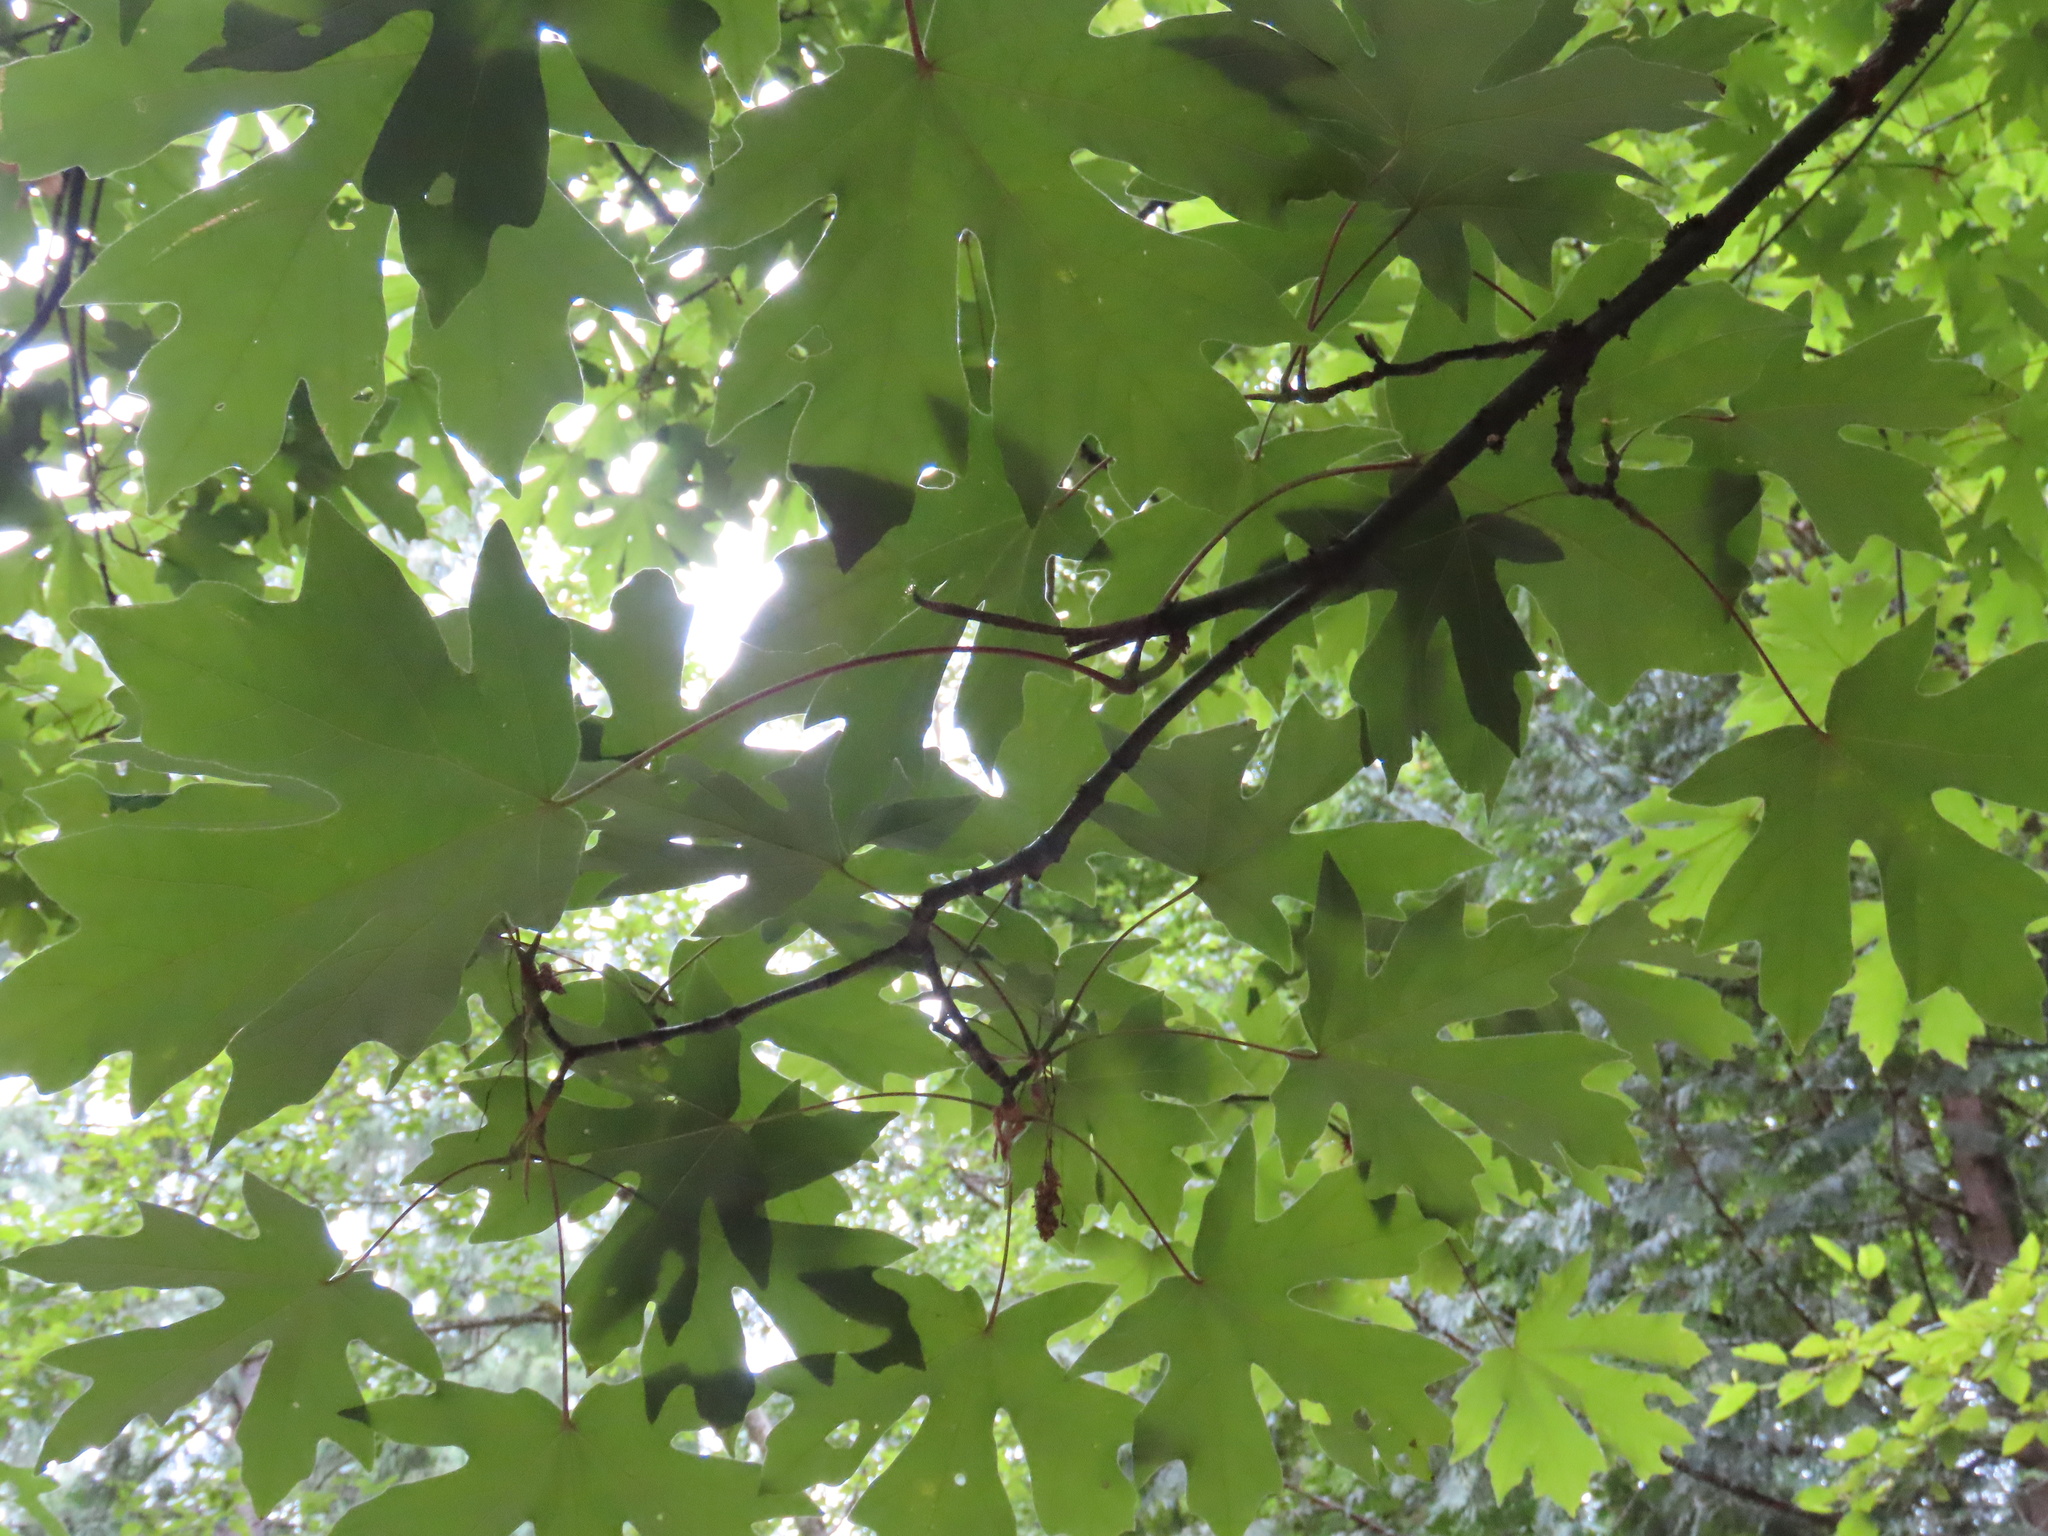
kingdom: Plantae
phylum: Tracheophyta
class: Magnoliopsida
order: Sapindales
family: Sapindaceae
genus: Acer
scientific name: Acer macrophyllum
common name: Oregon maple
